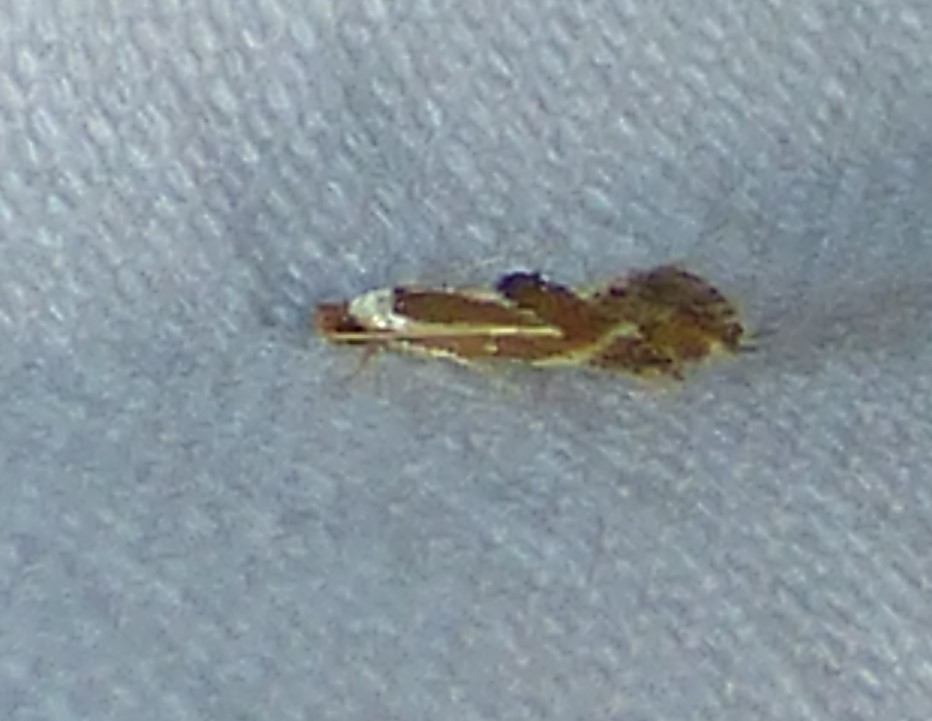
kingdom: Animalia
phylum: Arthropoda
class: Insecta
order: Lepidoptera
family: Lyonetiidae
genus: Philonome
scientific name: Philonome clemensella
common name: Clemen's philonome moth
